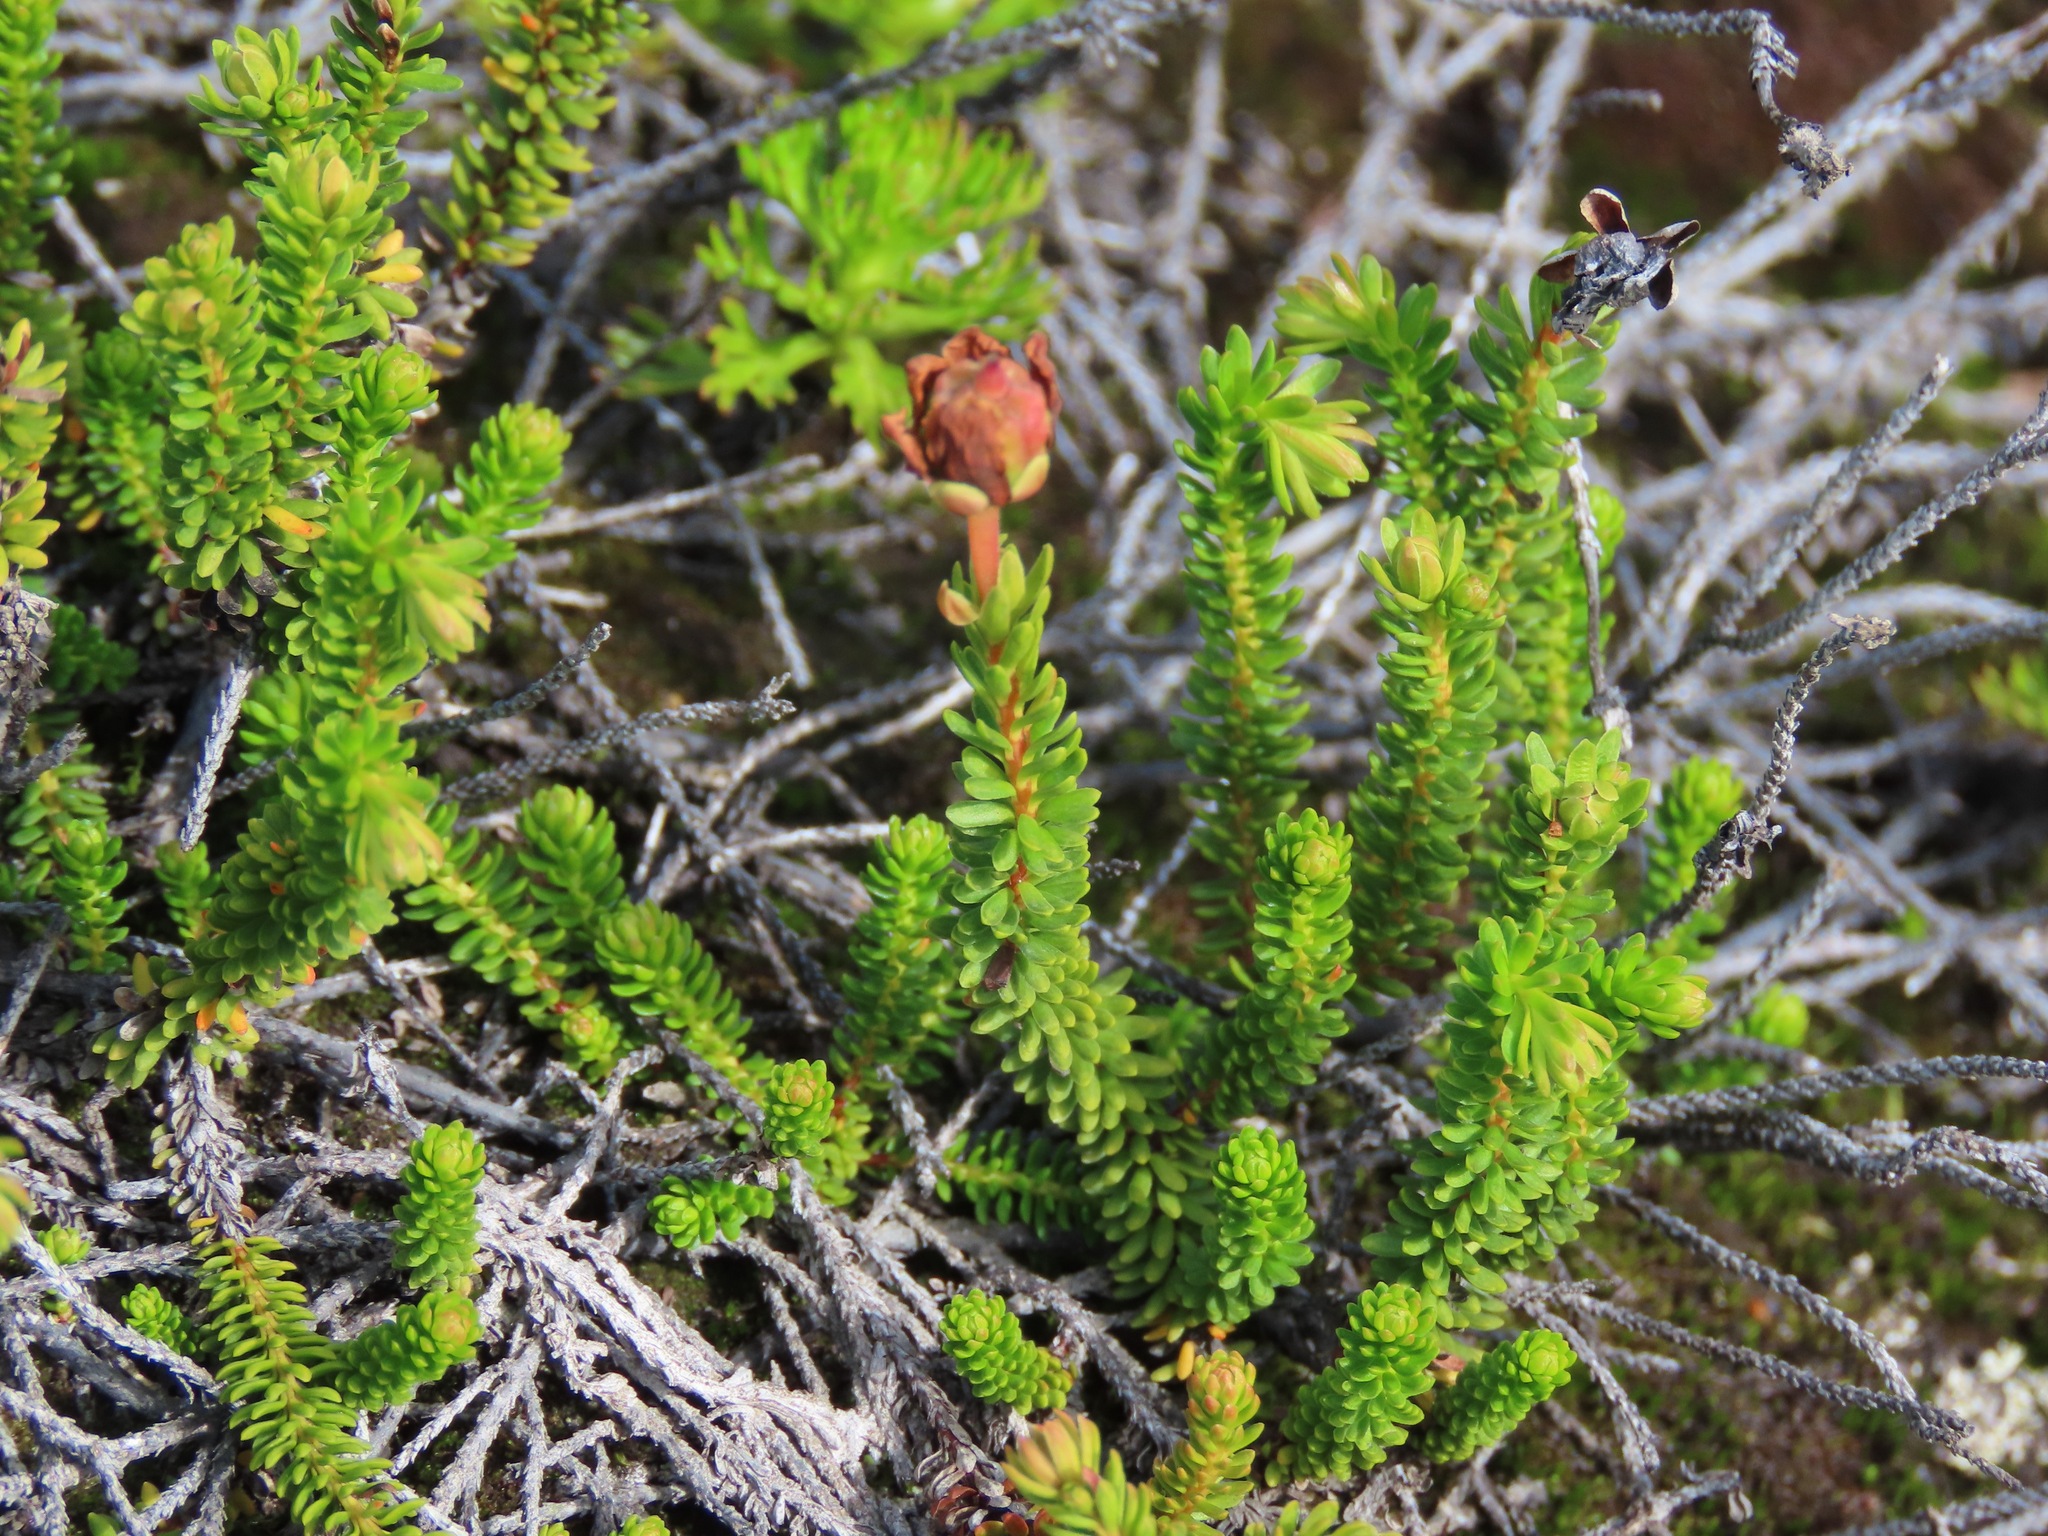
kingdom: Plantae
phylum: Tracheophyta
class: Magnoliopsida
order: Ericales
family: Ericaceae
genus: Empetrum
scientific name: Empetrum nigrum
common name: Black crowberry
